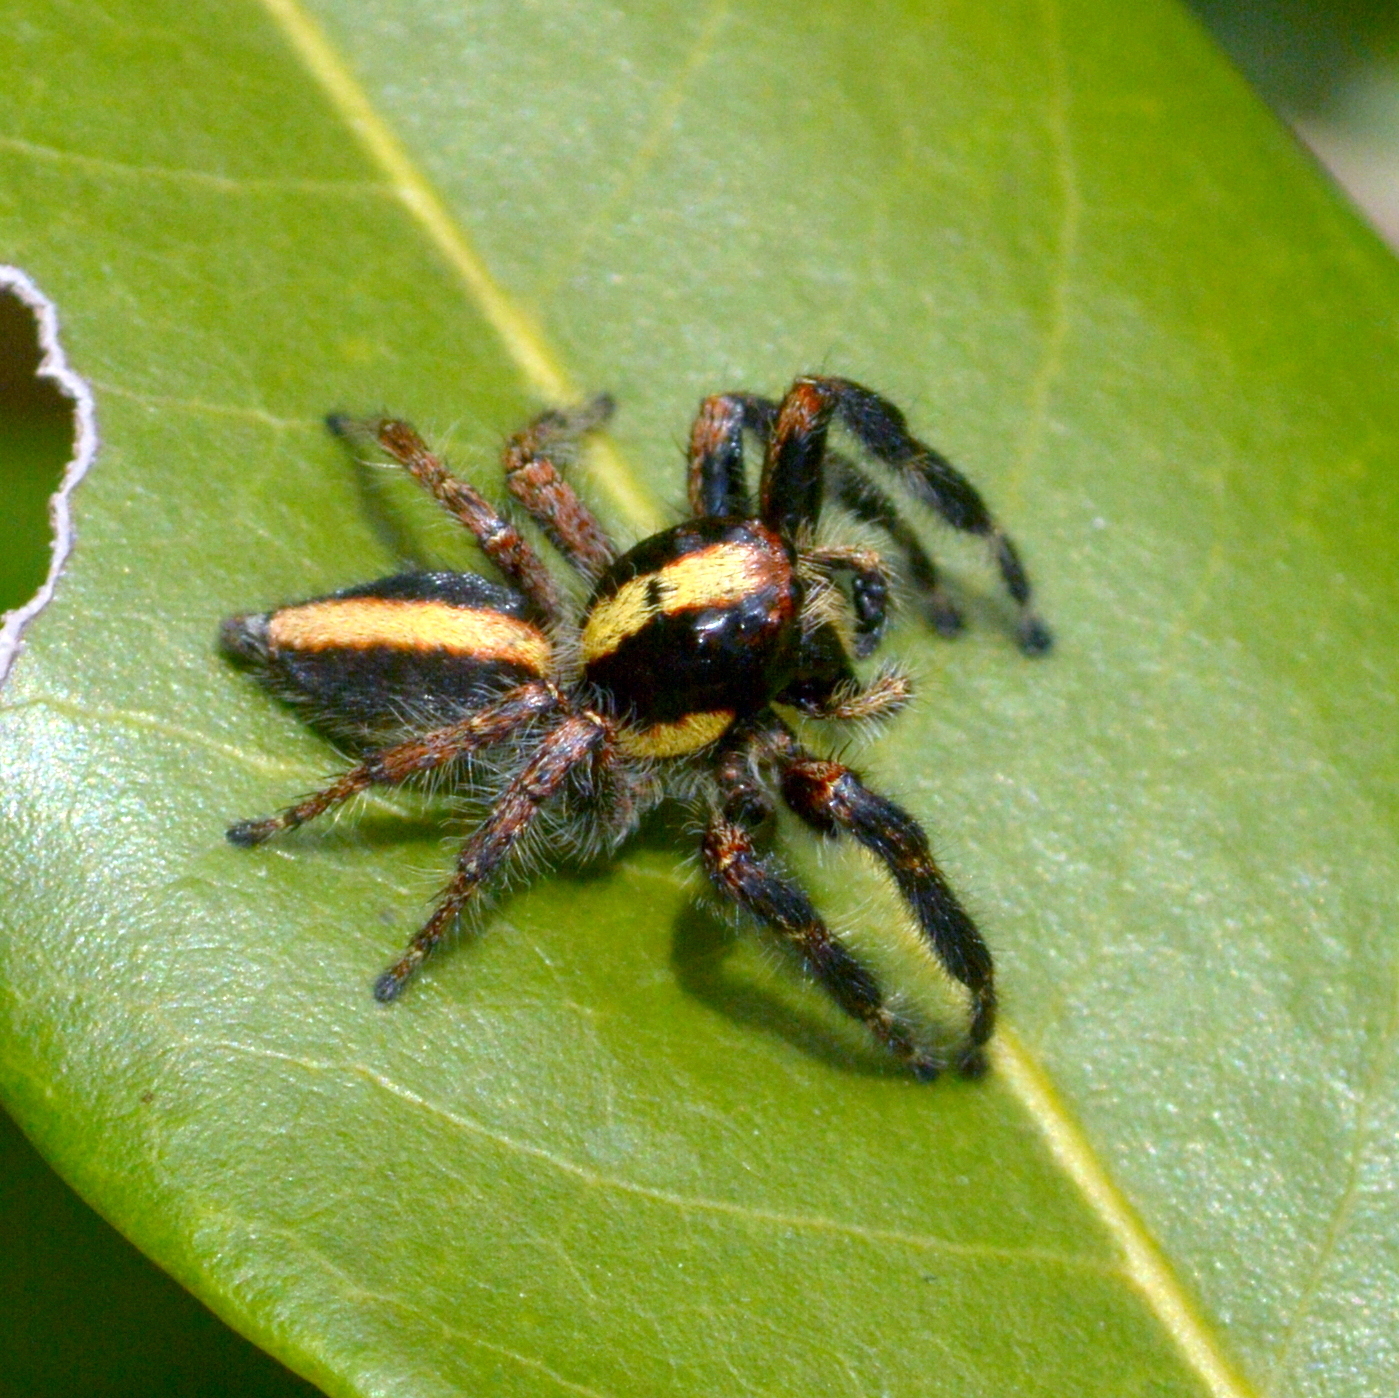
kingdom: Animalia
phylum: Arthropoda
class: Arachnida
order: Araneae
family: Salticidae
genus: Megafreya
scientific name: Megafreya sutrix
